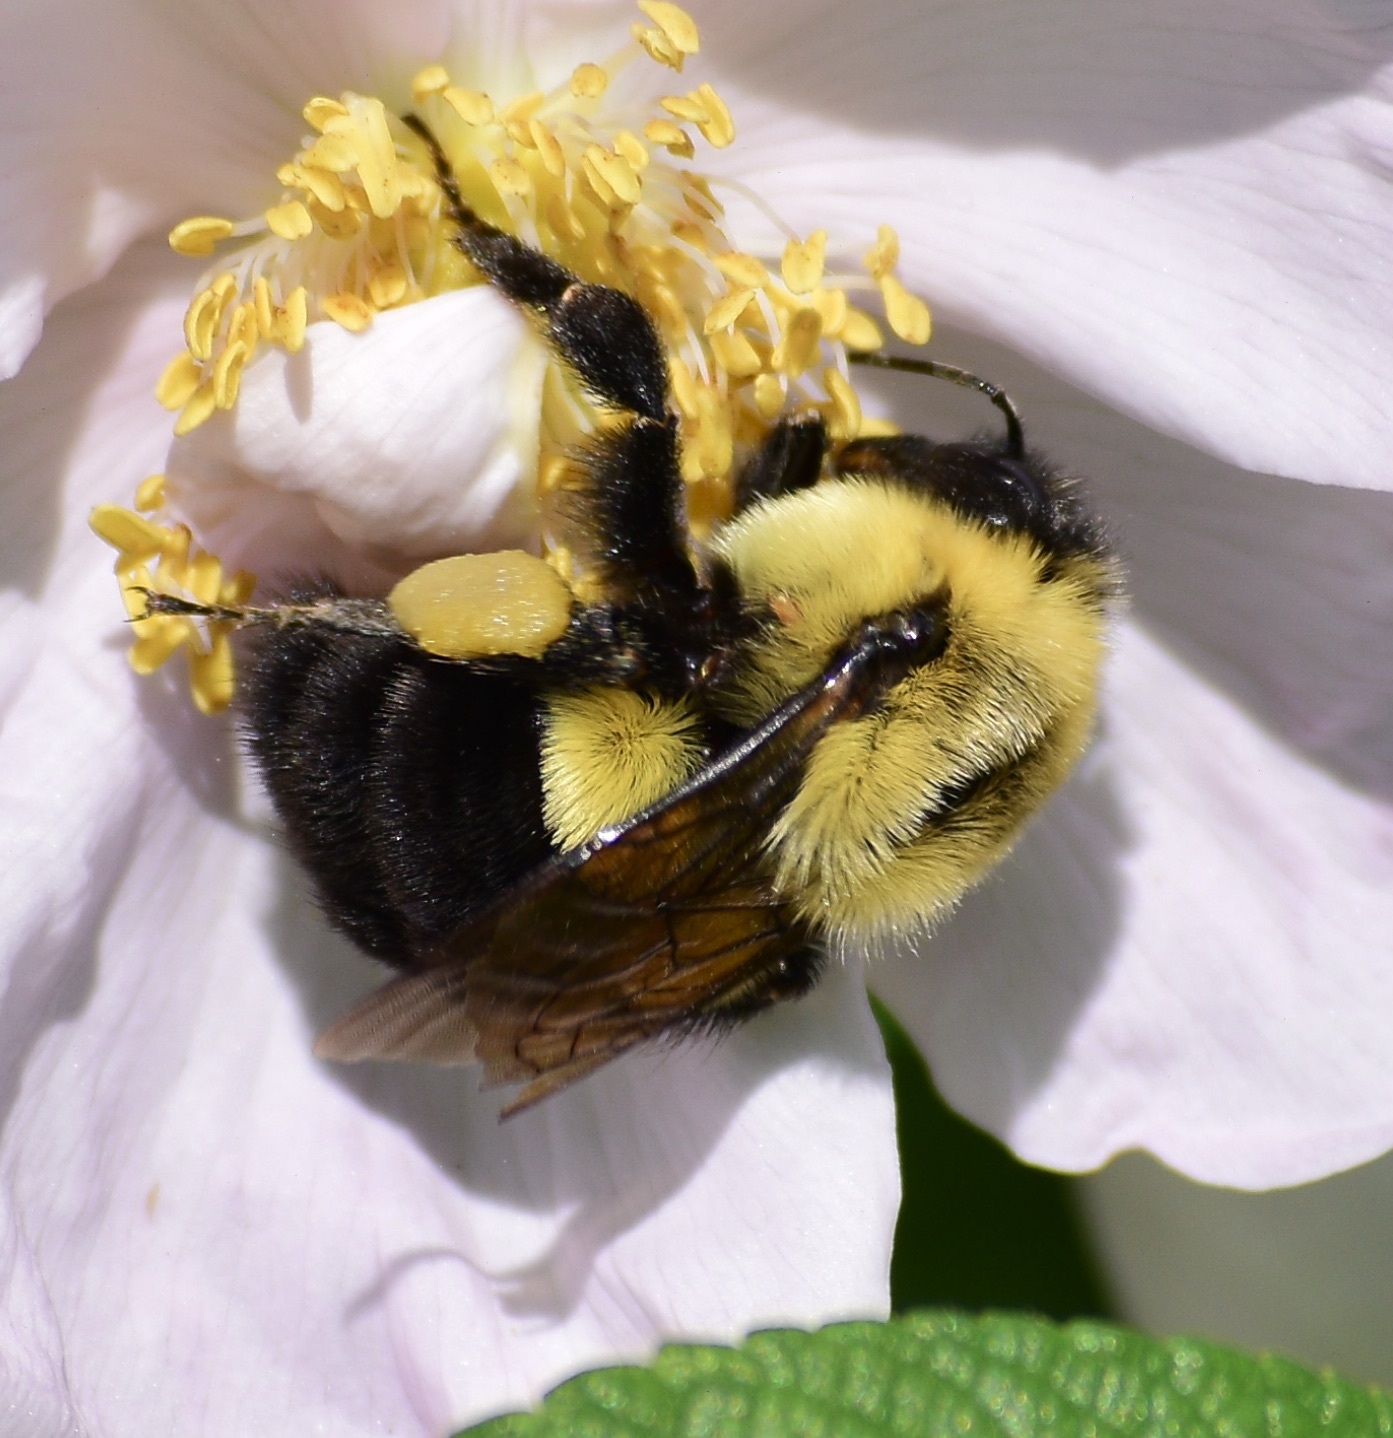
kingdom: Animalia
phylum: Arthropoda
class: Insecta
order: Hymenoptera
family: Apidae
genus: Bombus
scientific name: Bombus impatiens
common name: Common eastern bumble bee
